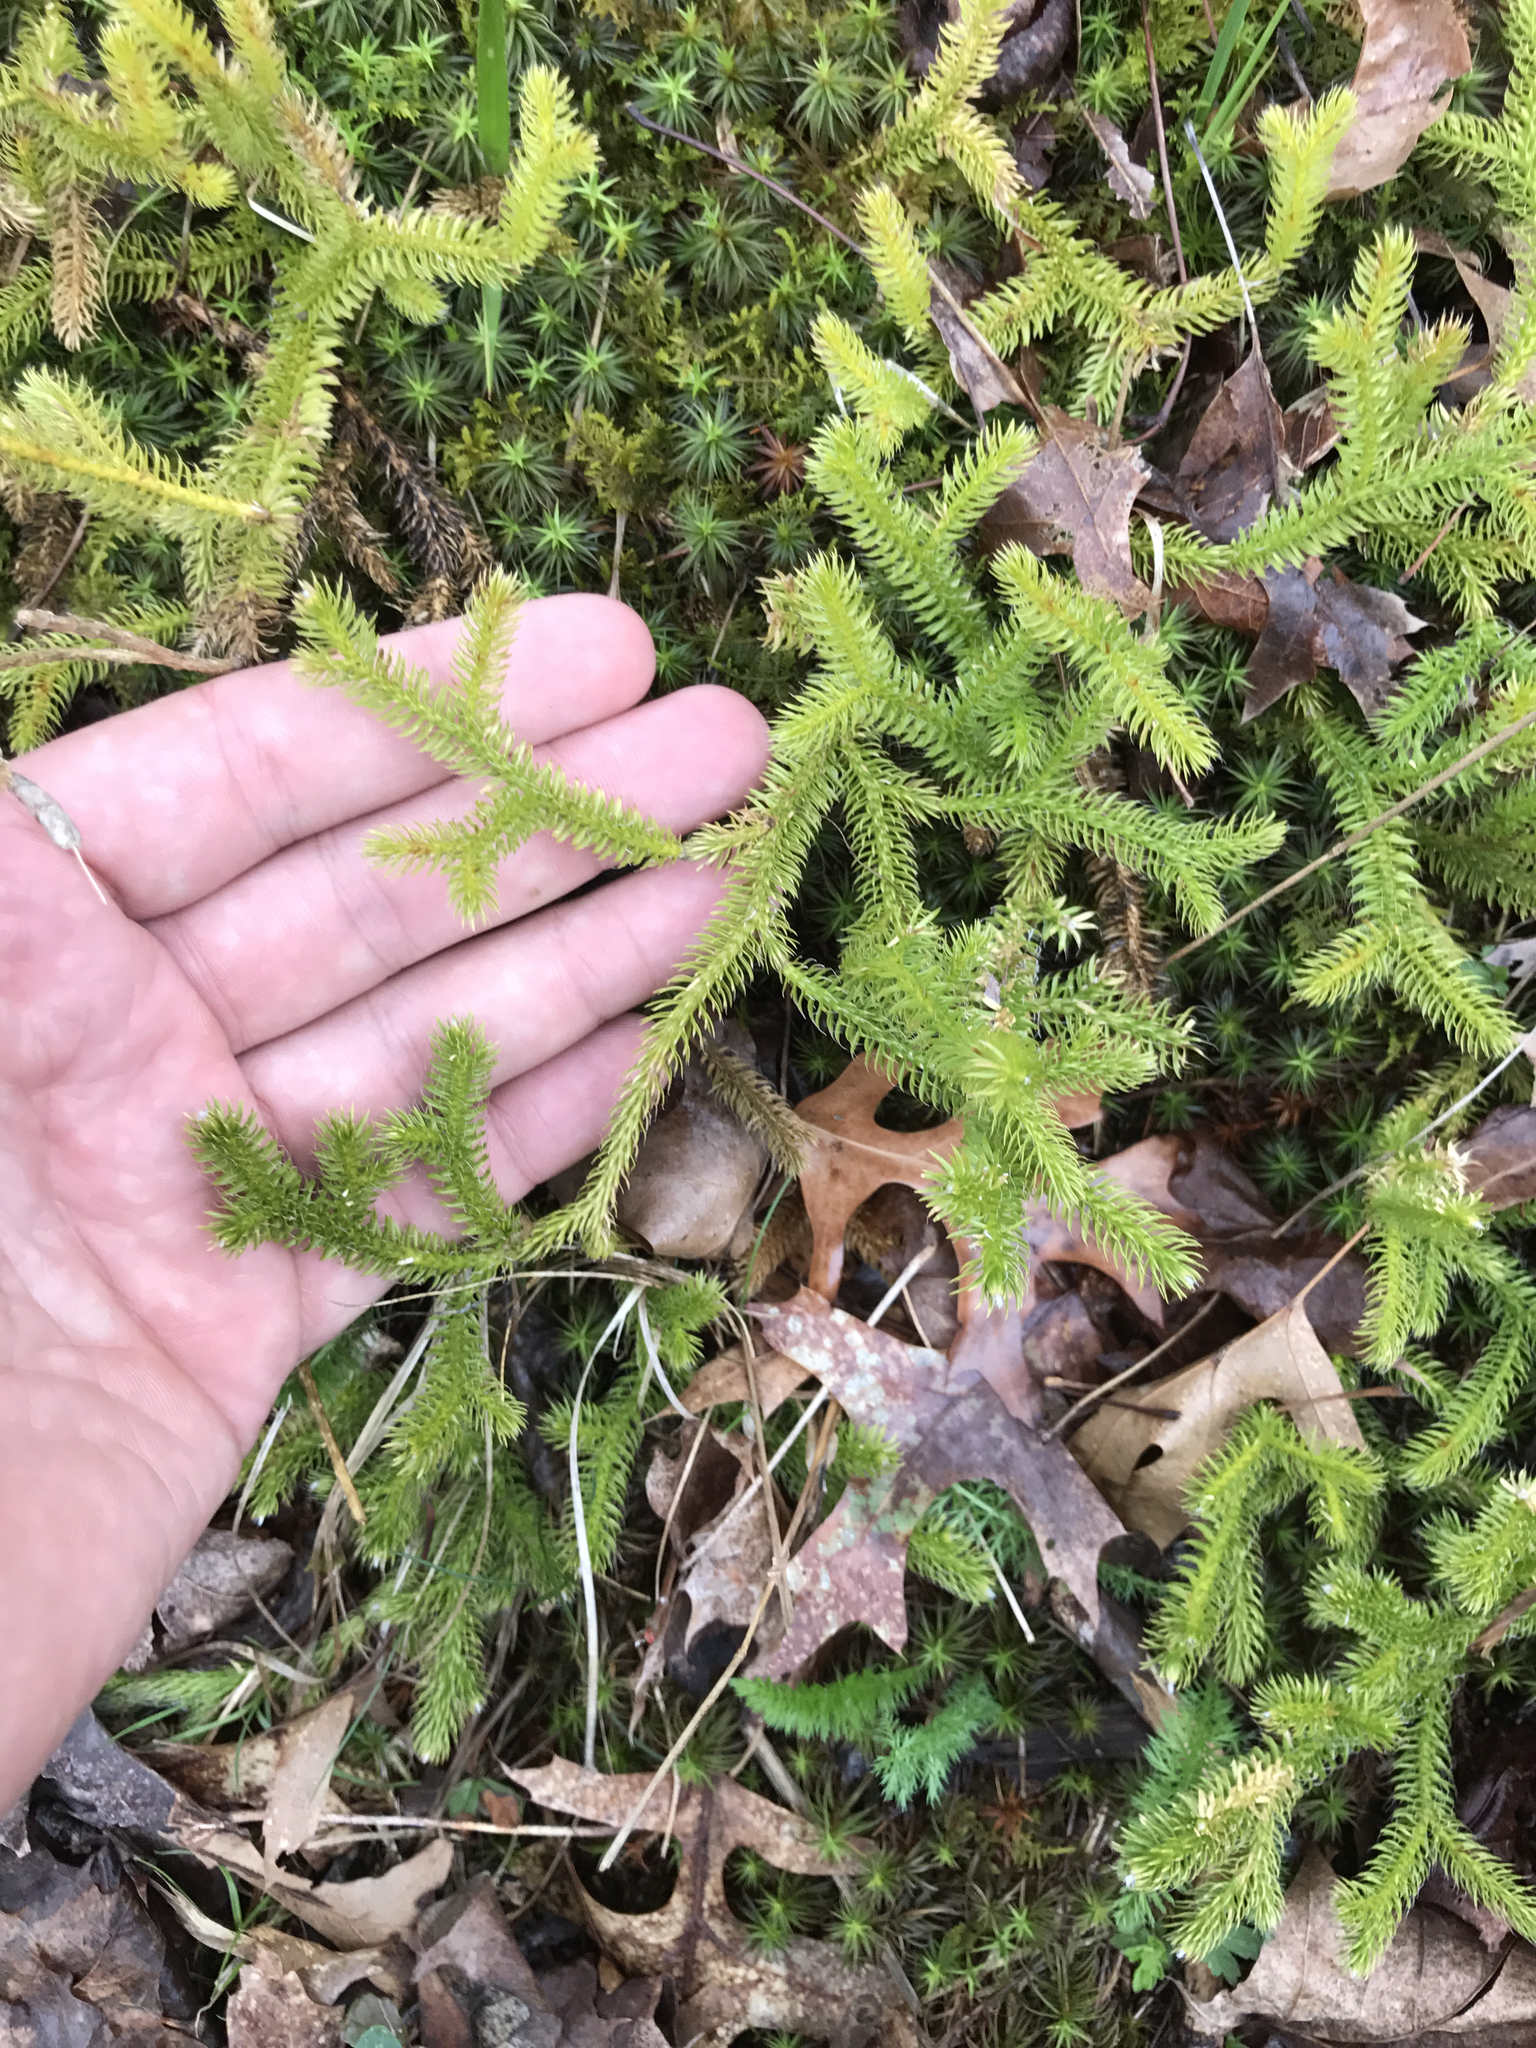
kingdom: Plantae
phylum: Tracheophyta
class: Lycopodiopsida
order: Lycopodiales
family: Lycopodiaceae
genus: Lycopodium
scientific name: Lycopodium clavatum
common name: Stag's-horn clubmoss
